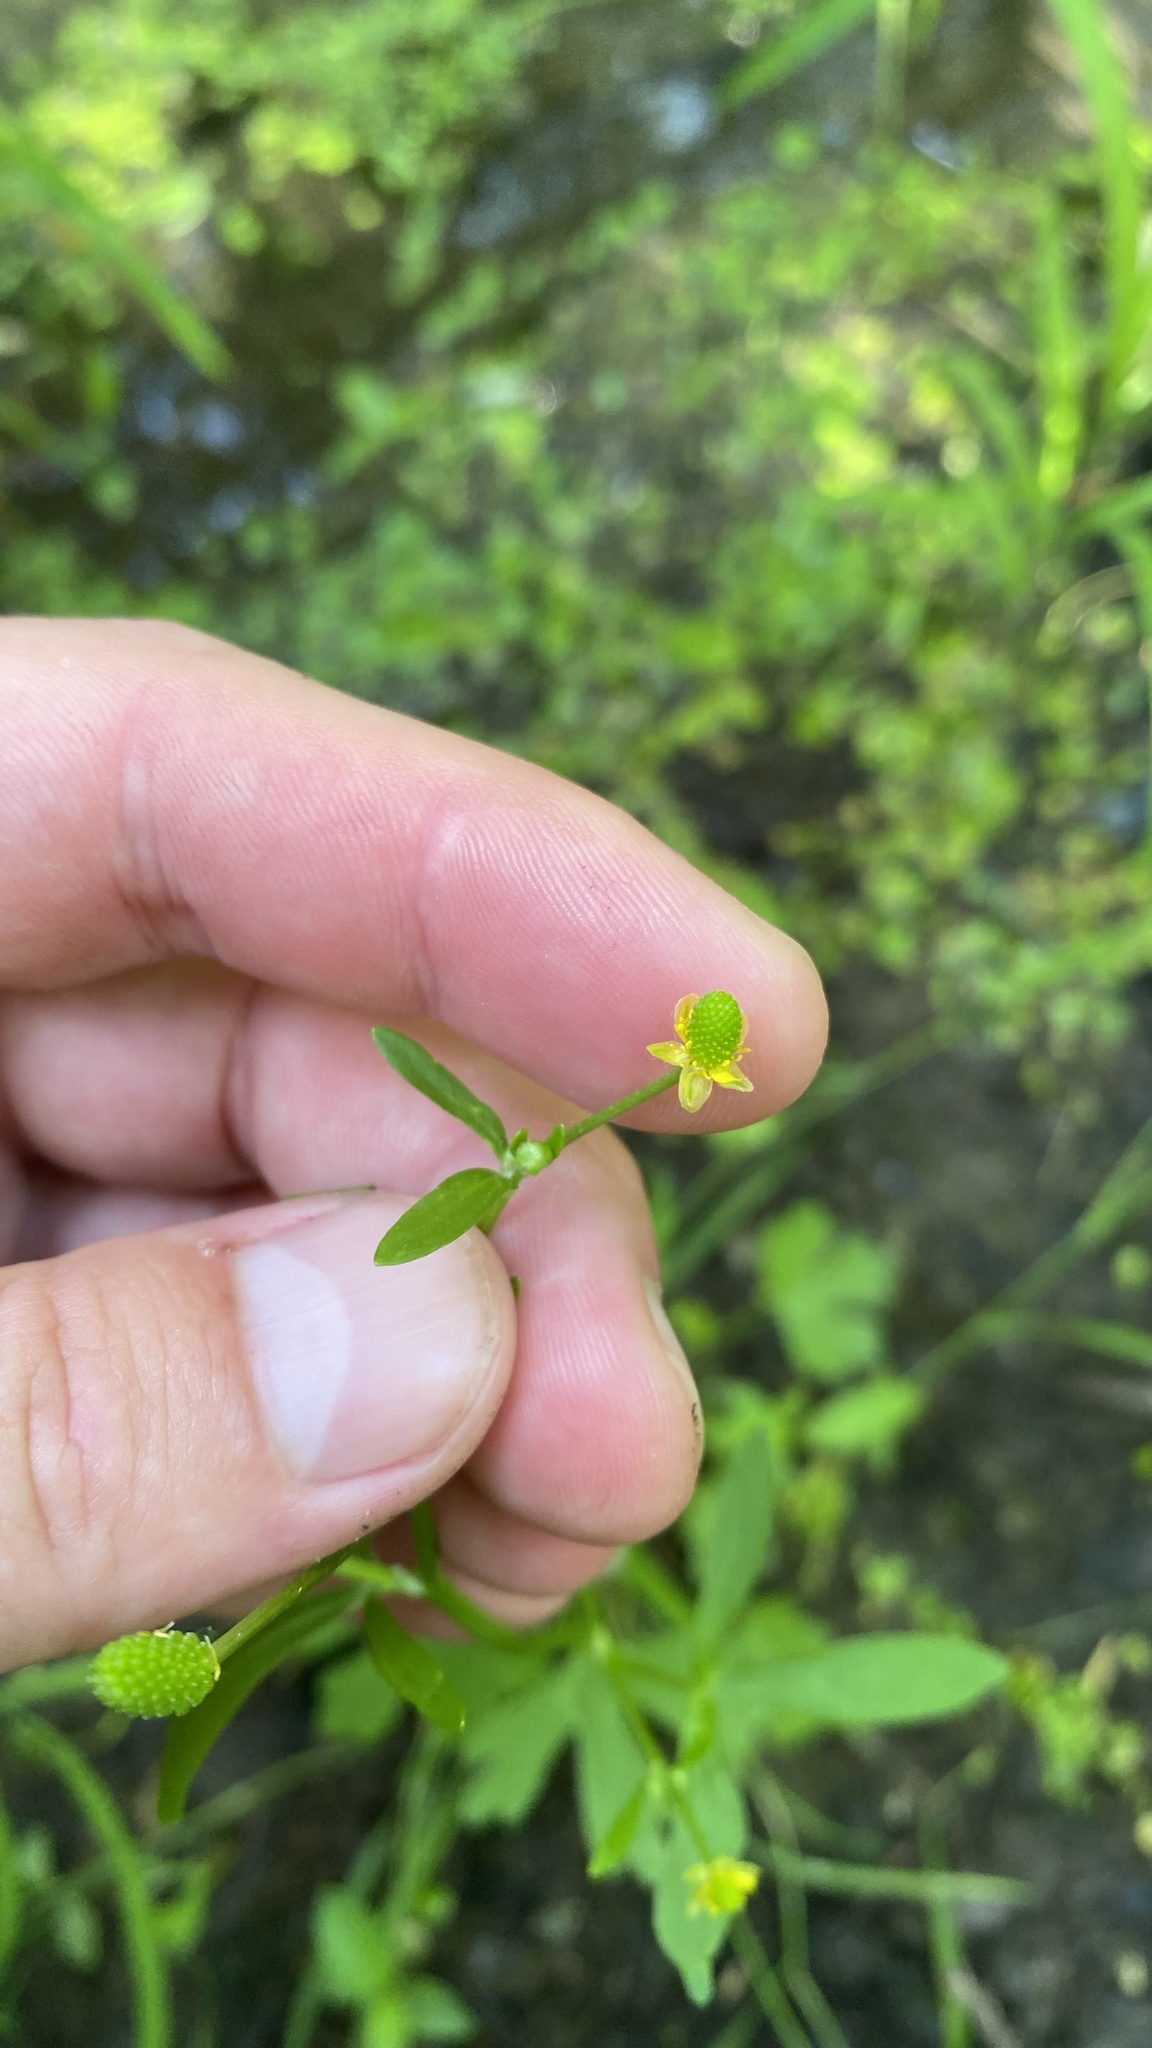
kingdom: Plantae
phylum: Tracheophyta
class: Magnoliopsida
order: Ranunculales
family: Ranunculaceae
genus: Ranunculus
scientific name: Ranunculus sceleratus
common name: Celery-leaved buttercup
